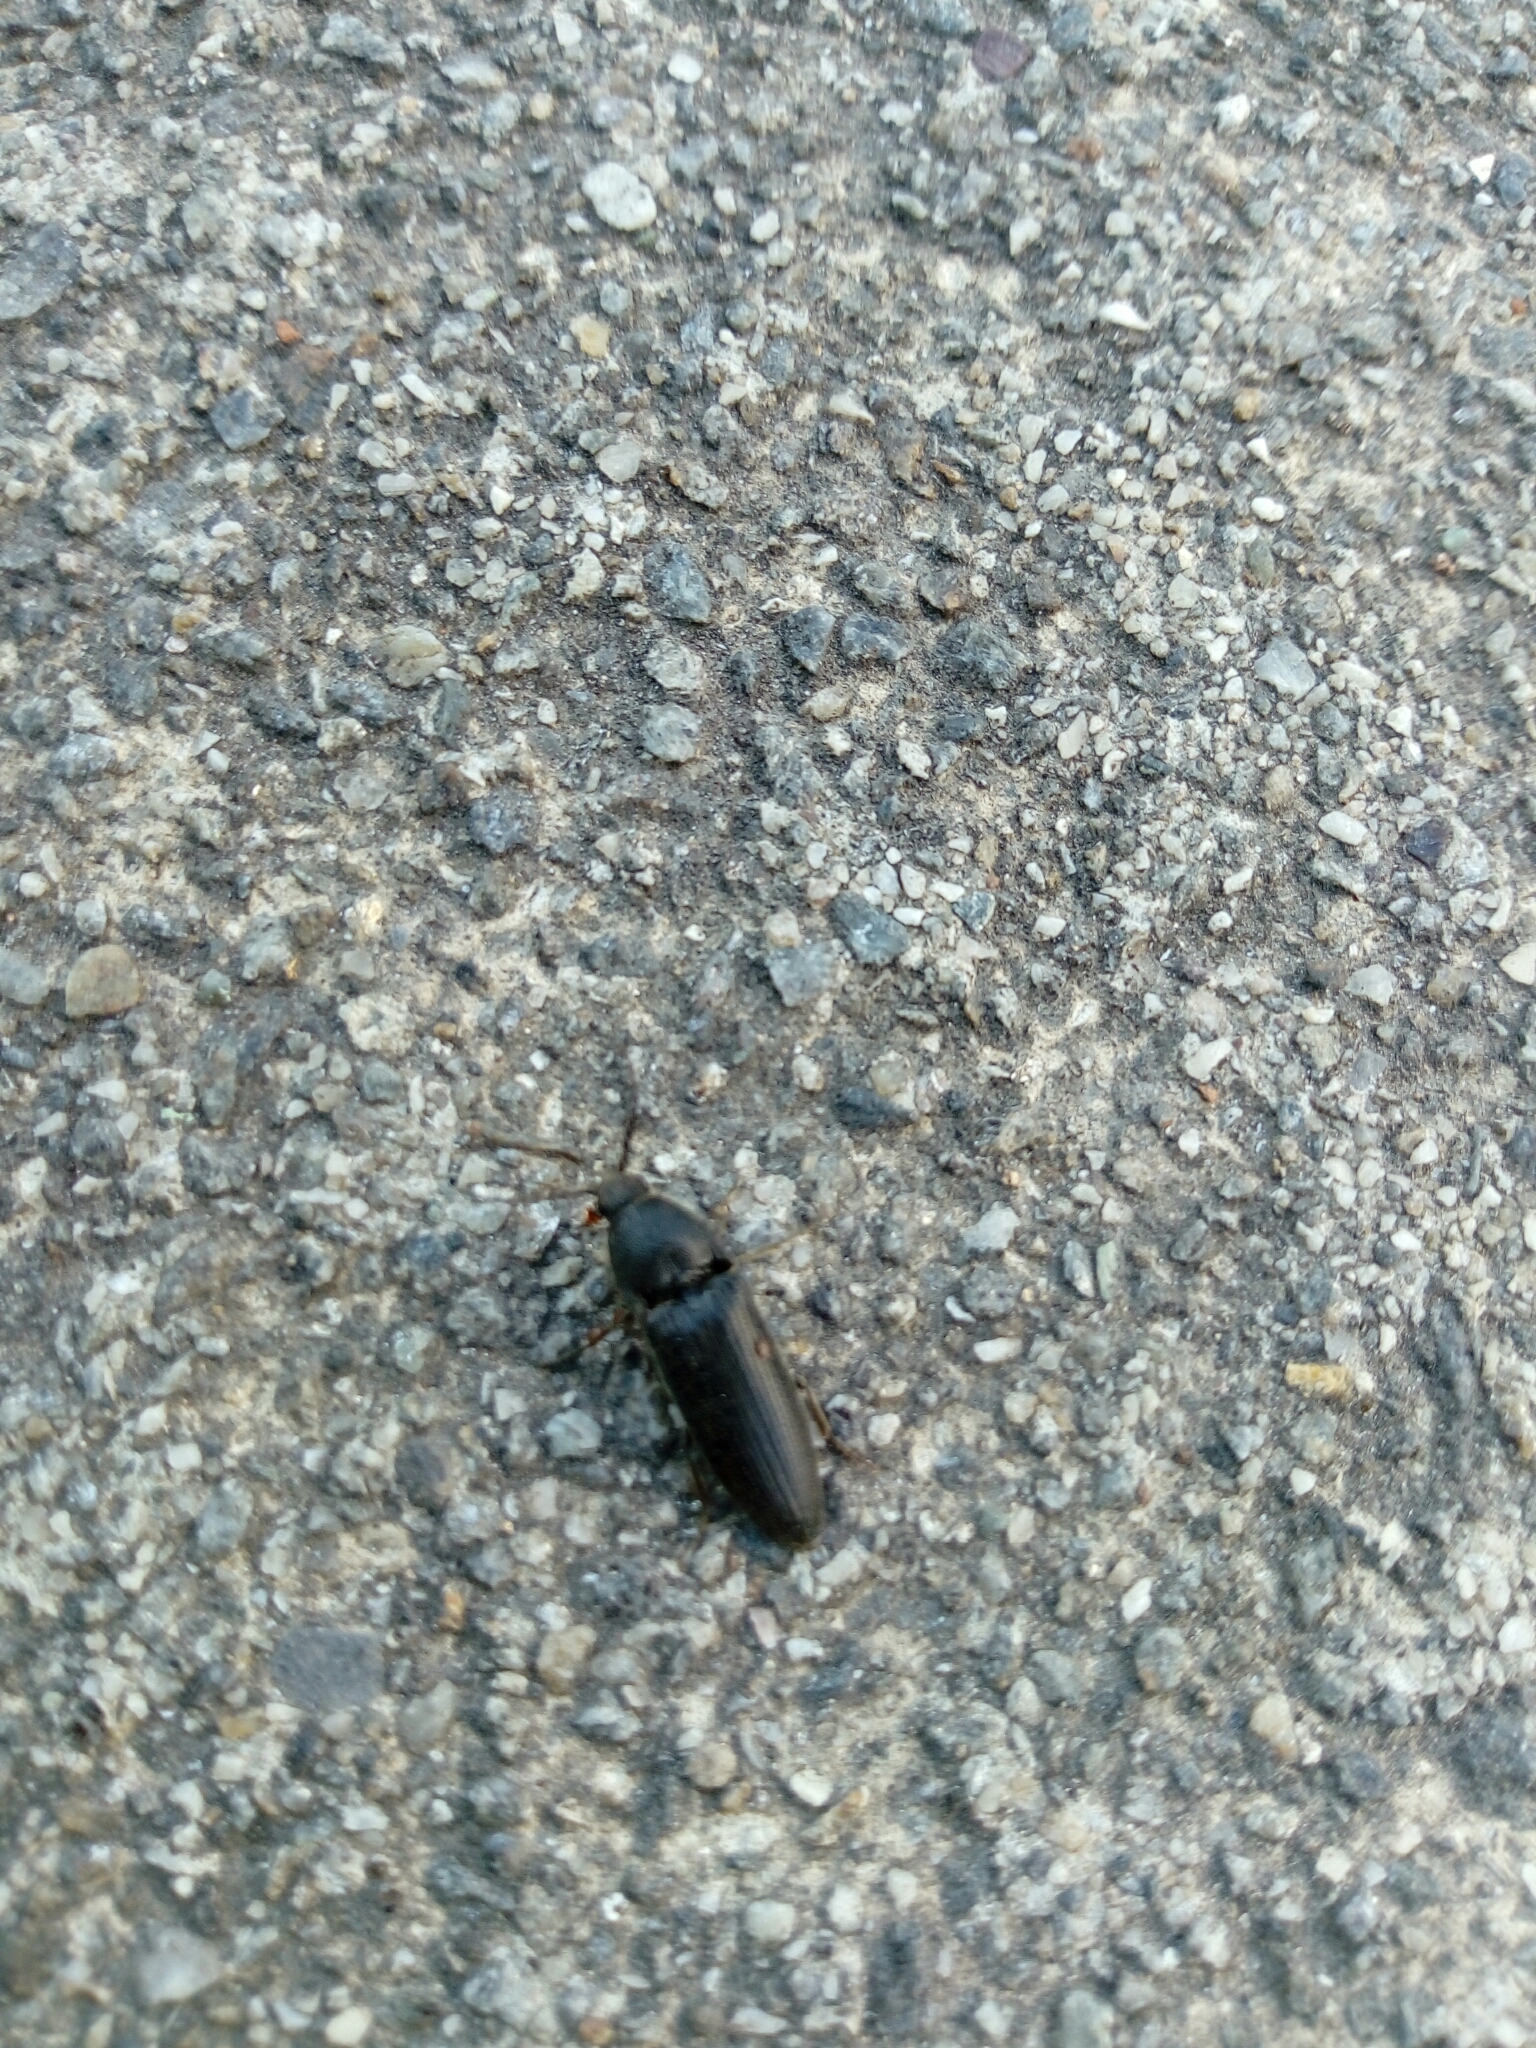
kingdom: Animalia
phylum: Arthropoda
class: Insecta
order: Coleoptera
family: Elateridae
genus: Melanotus
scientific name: Melanotus punctolineatus
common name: Sandwich click beetle
